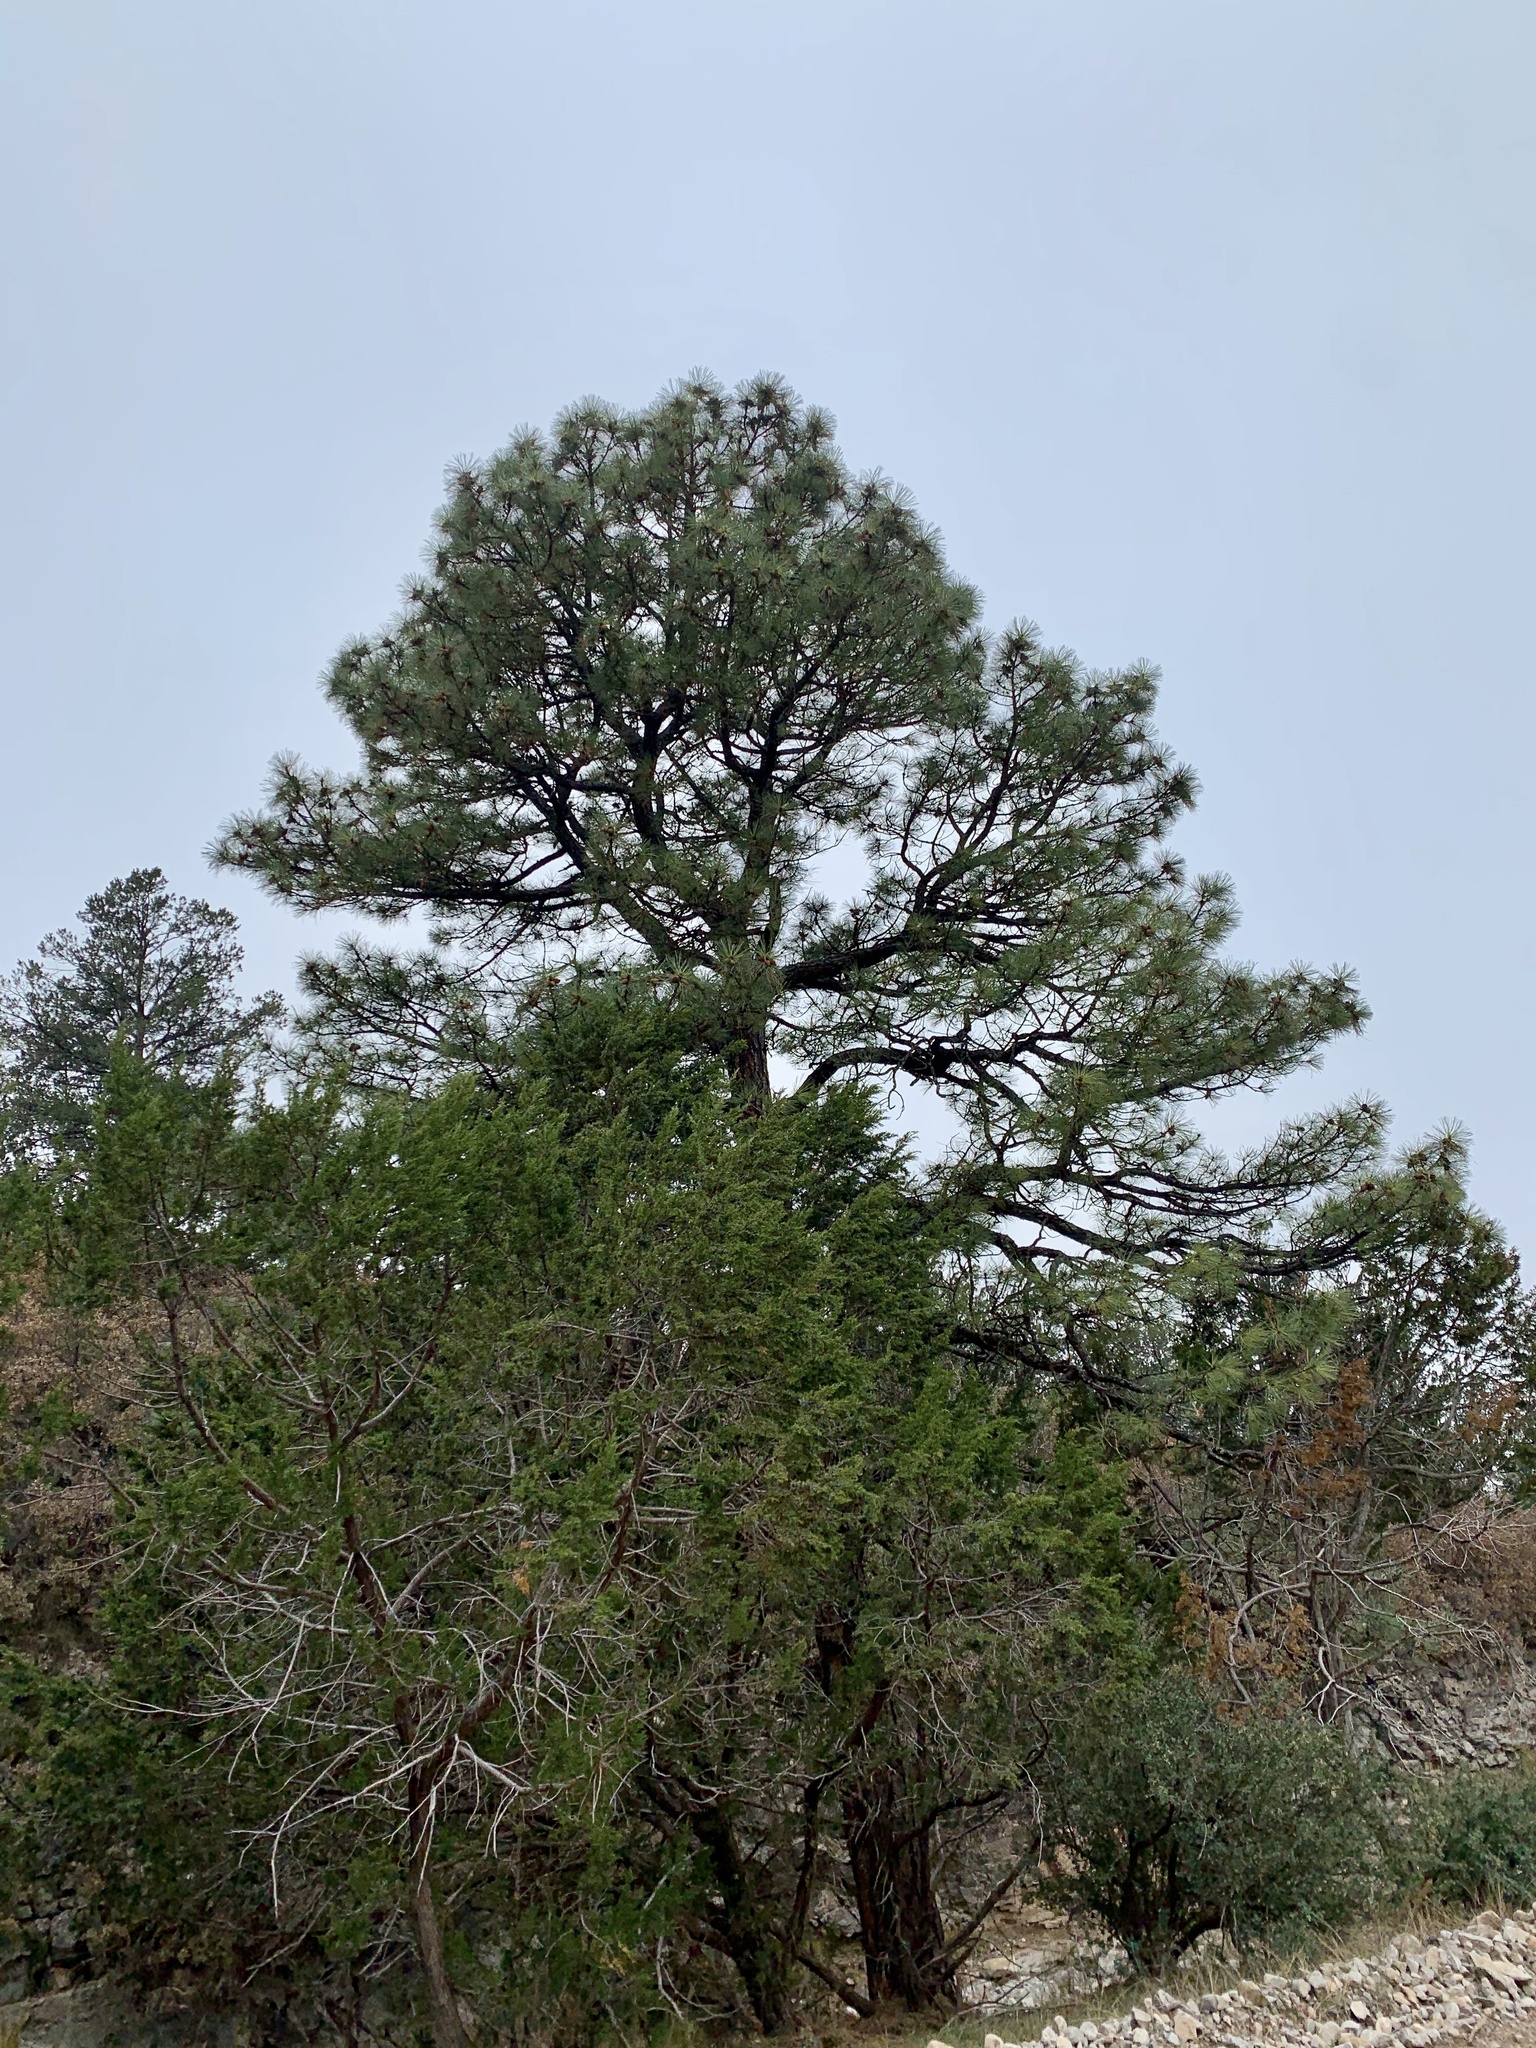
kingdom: Plantae
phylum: Tracheophyta
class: Pinopsida
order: Pinales
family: Pinaceae
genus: Pinus
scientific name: Pinus ponderosa
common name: Western yellow-pine
